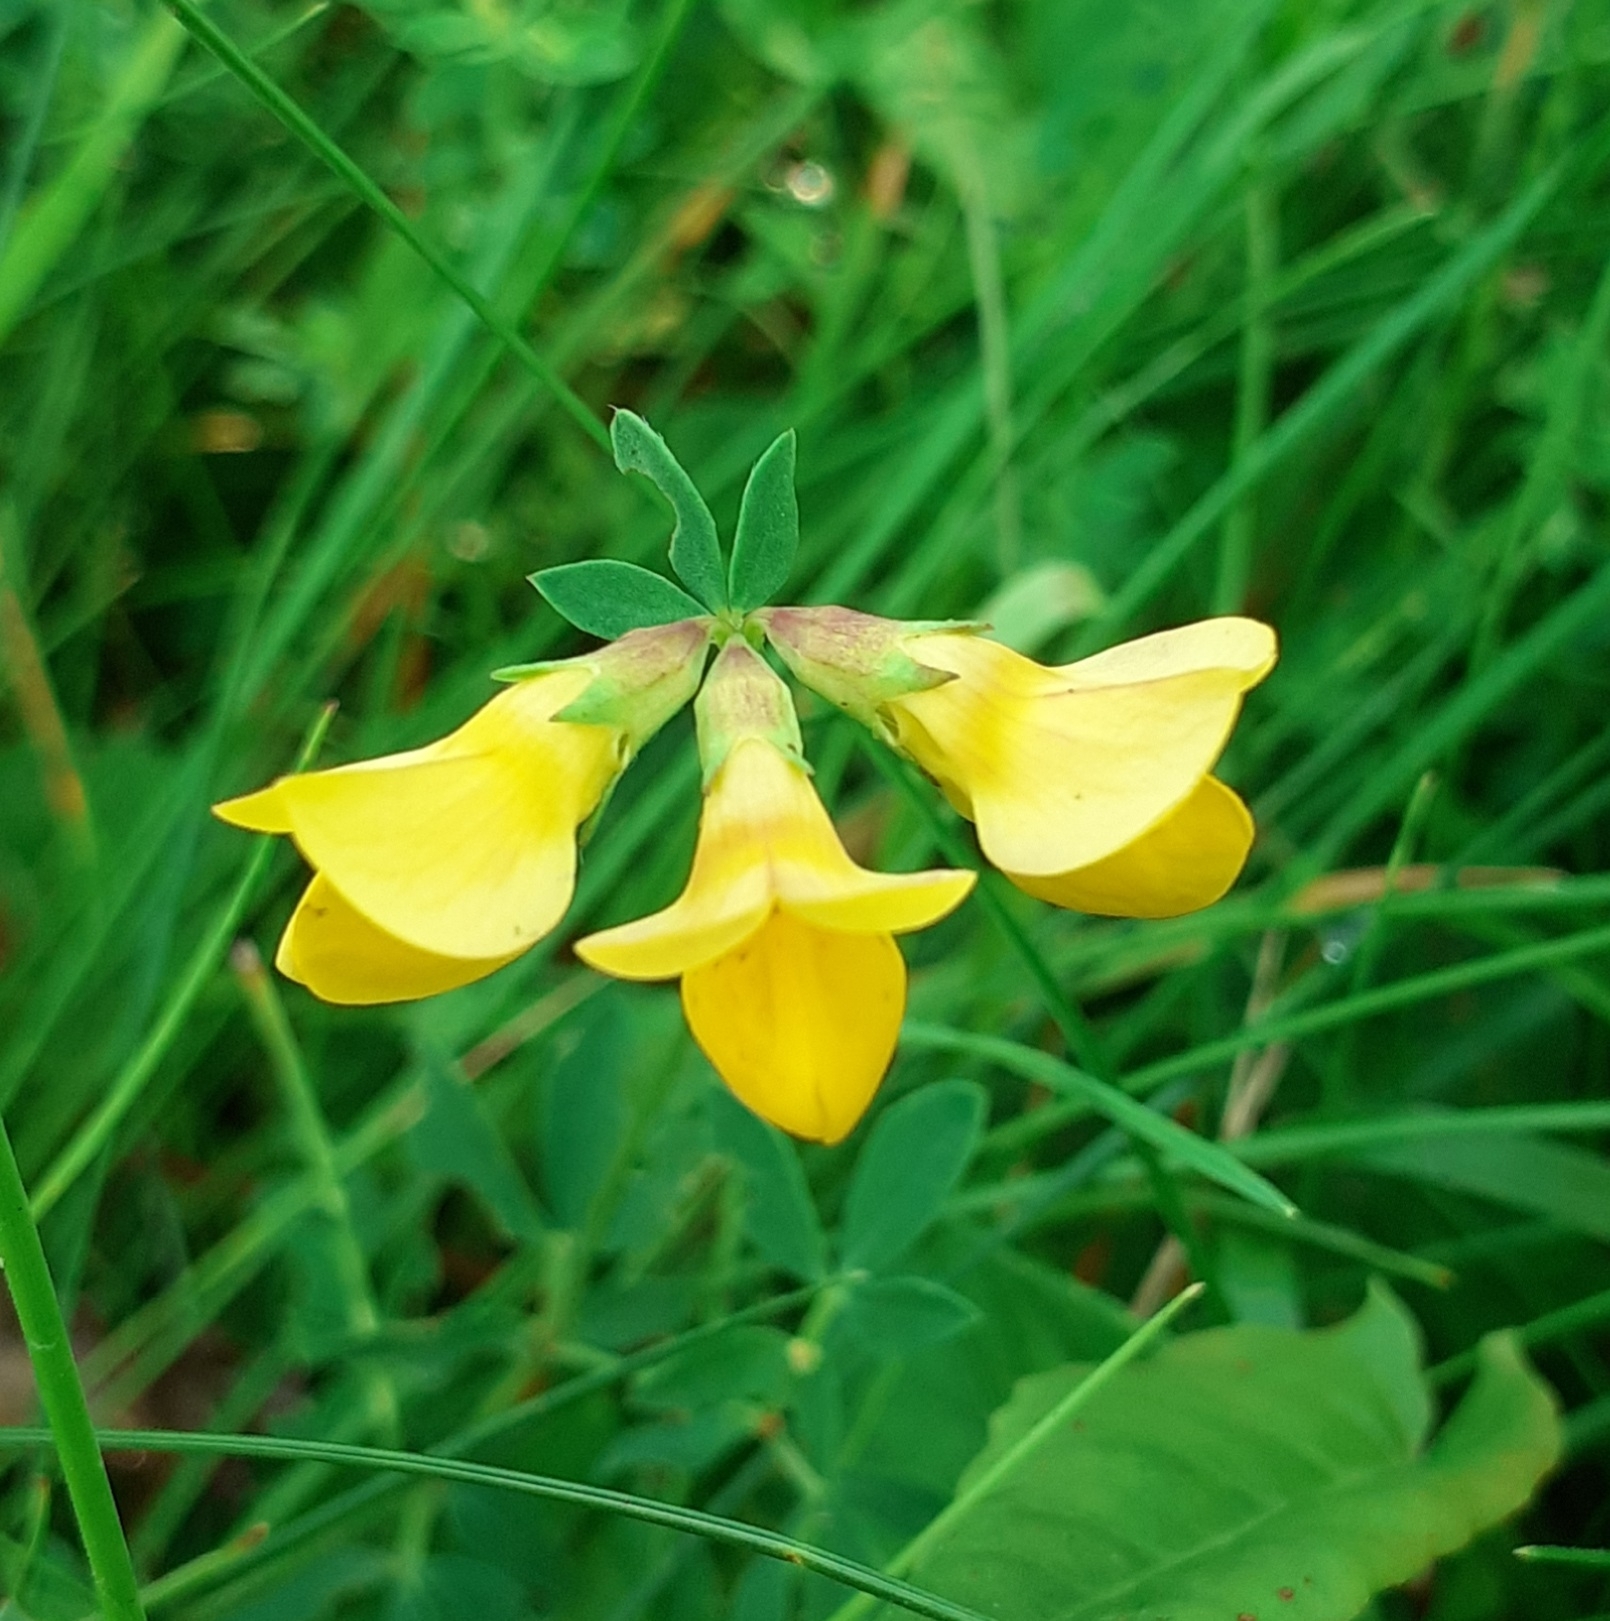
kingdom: Plantae
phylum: Tracheophyta
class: Magnoliopsida
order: Fabales
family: Fabaceae
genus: Lotus
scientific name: Lotus corniculatus
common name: Common bird's-foot-trefoil
